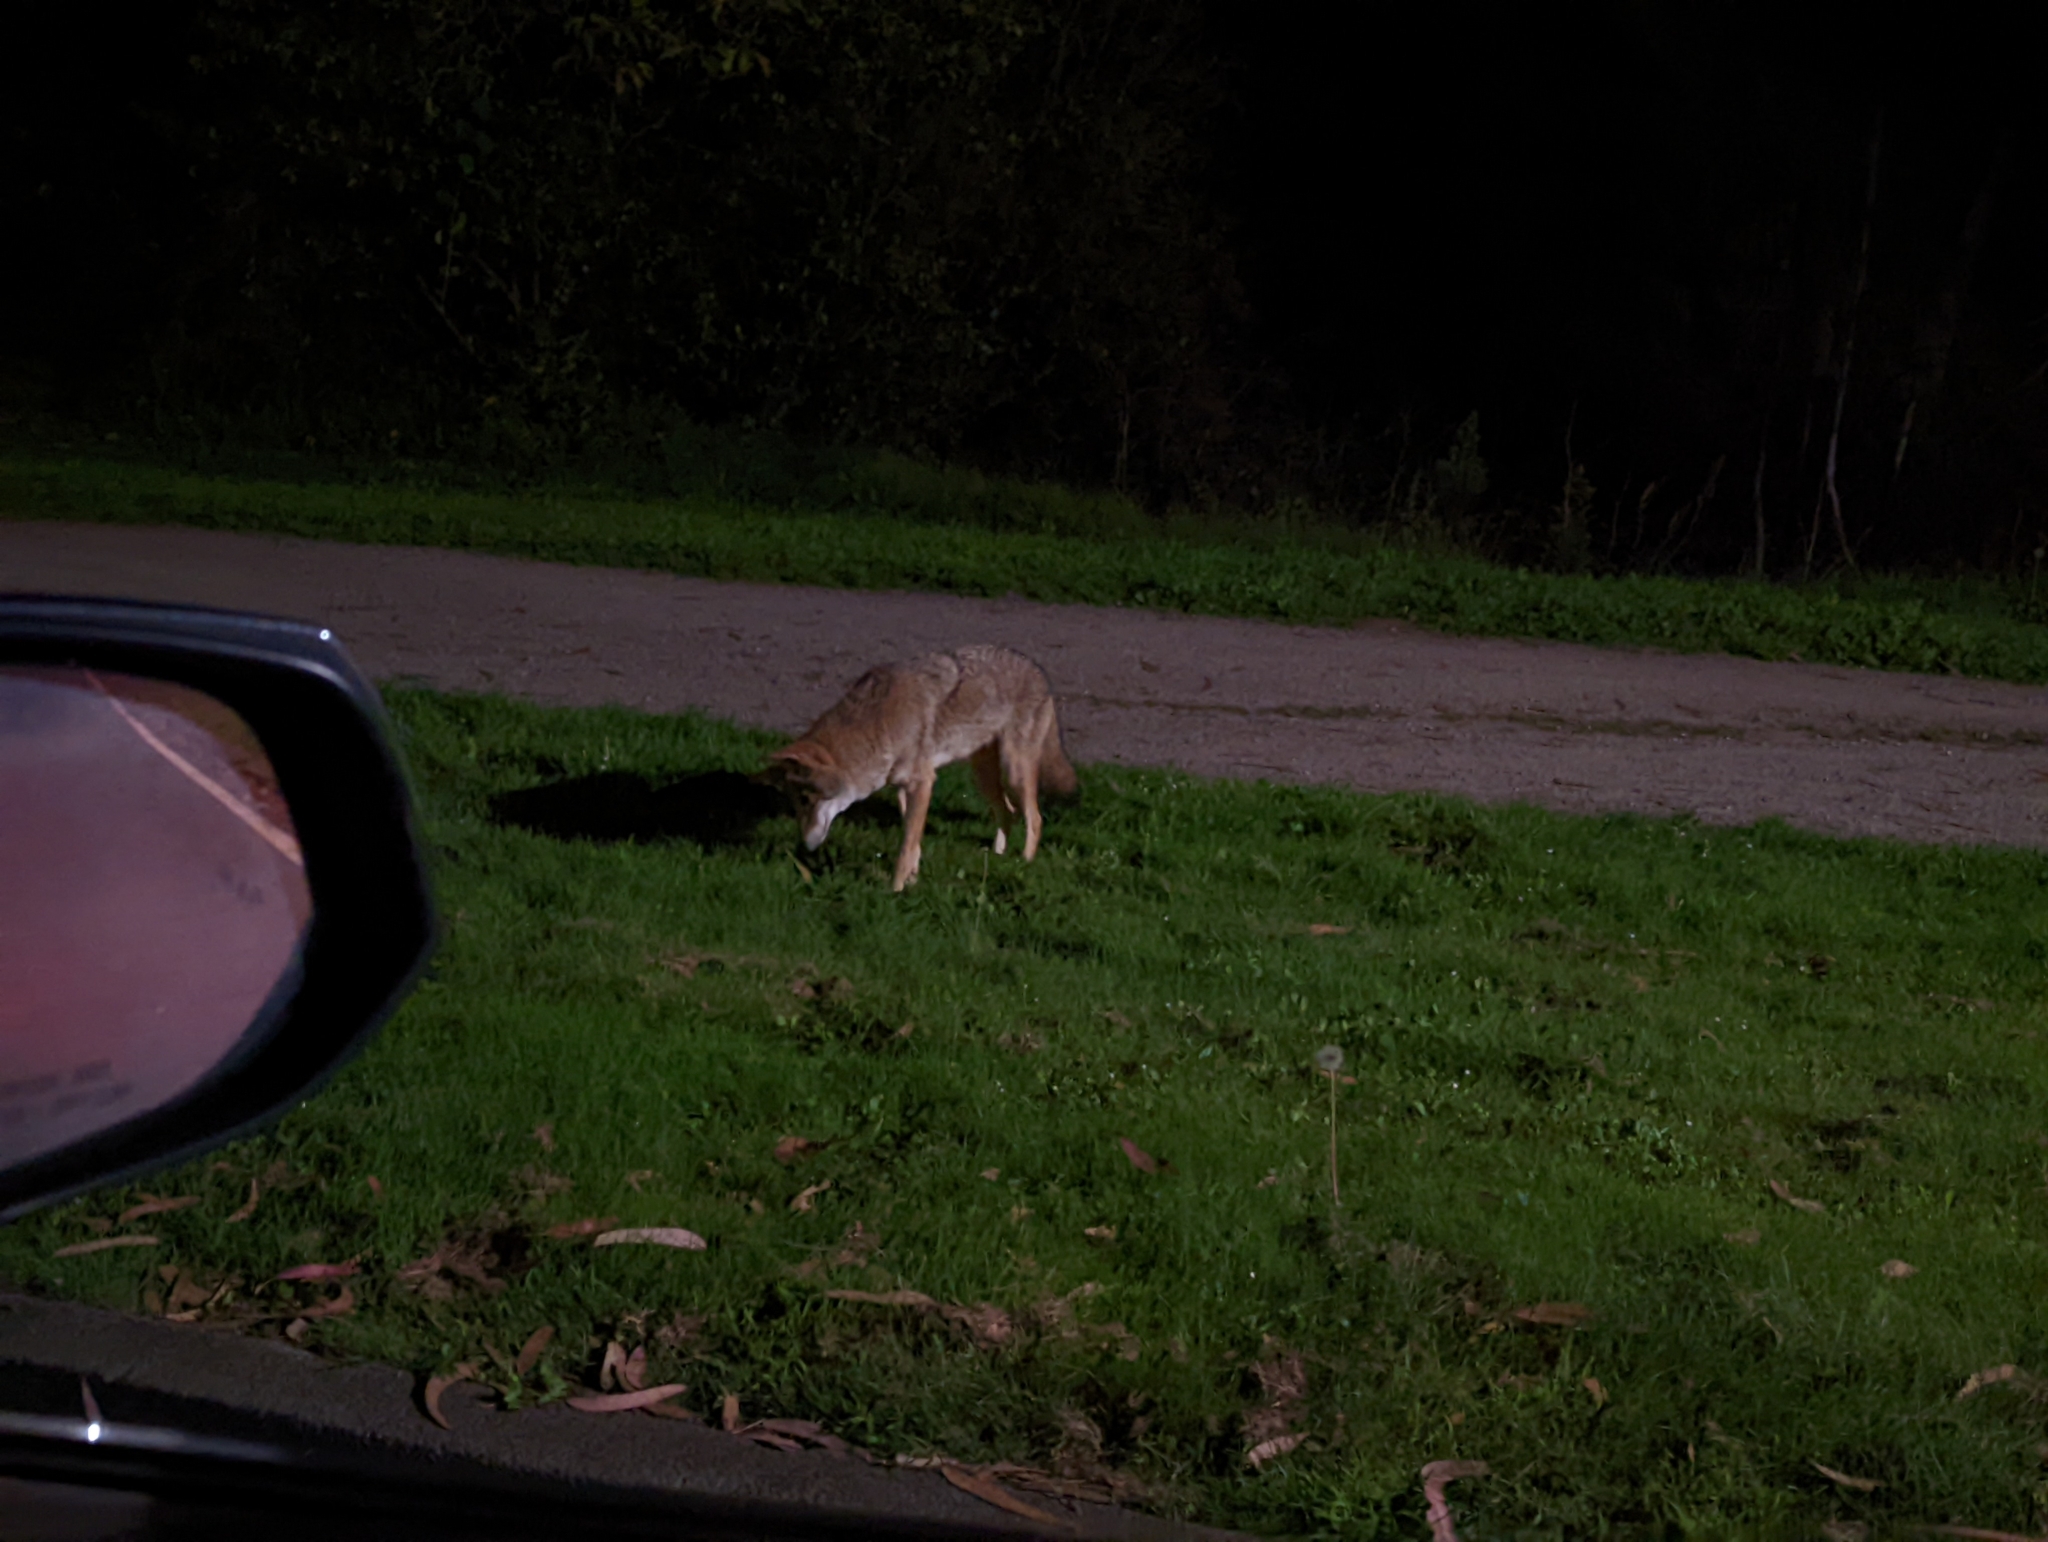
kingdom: Animalia
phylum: Chordata
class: Mammalia
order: Carnivora
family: Canidae
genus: Canis
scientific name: Canis latrans
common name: Coyote
